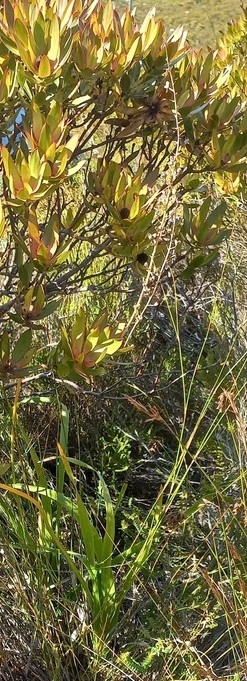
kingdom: Plantae
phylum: Tracheophyta
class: Liliopsida
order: Asparagales
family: Asphodelaceae
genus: Trachyandra
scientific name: Trachyandra tabularis
